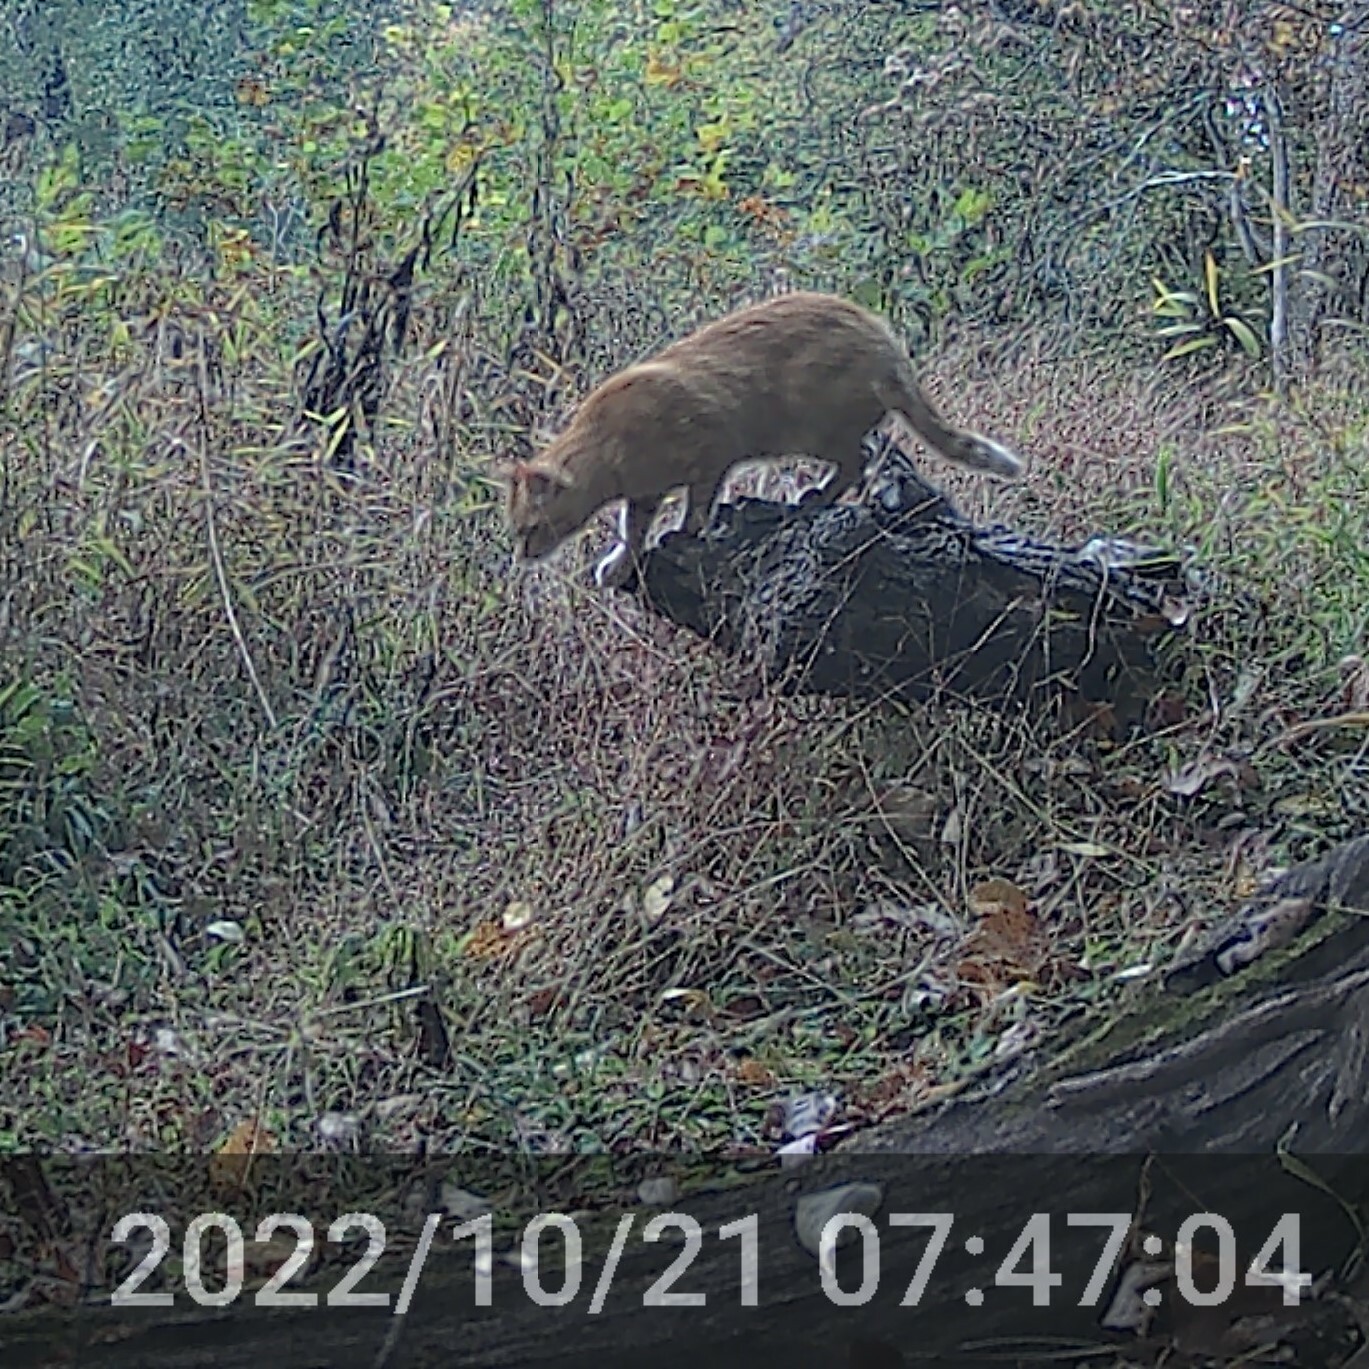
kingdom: Animalia
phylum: Chordata
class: Mammalia
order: Carnivora
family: Felidae
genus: Felis
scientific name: Felis catus
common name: Domestic cat
